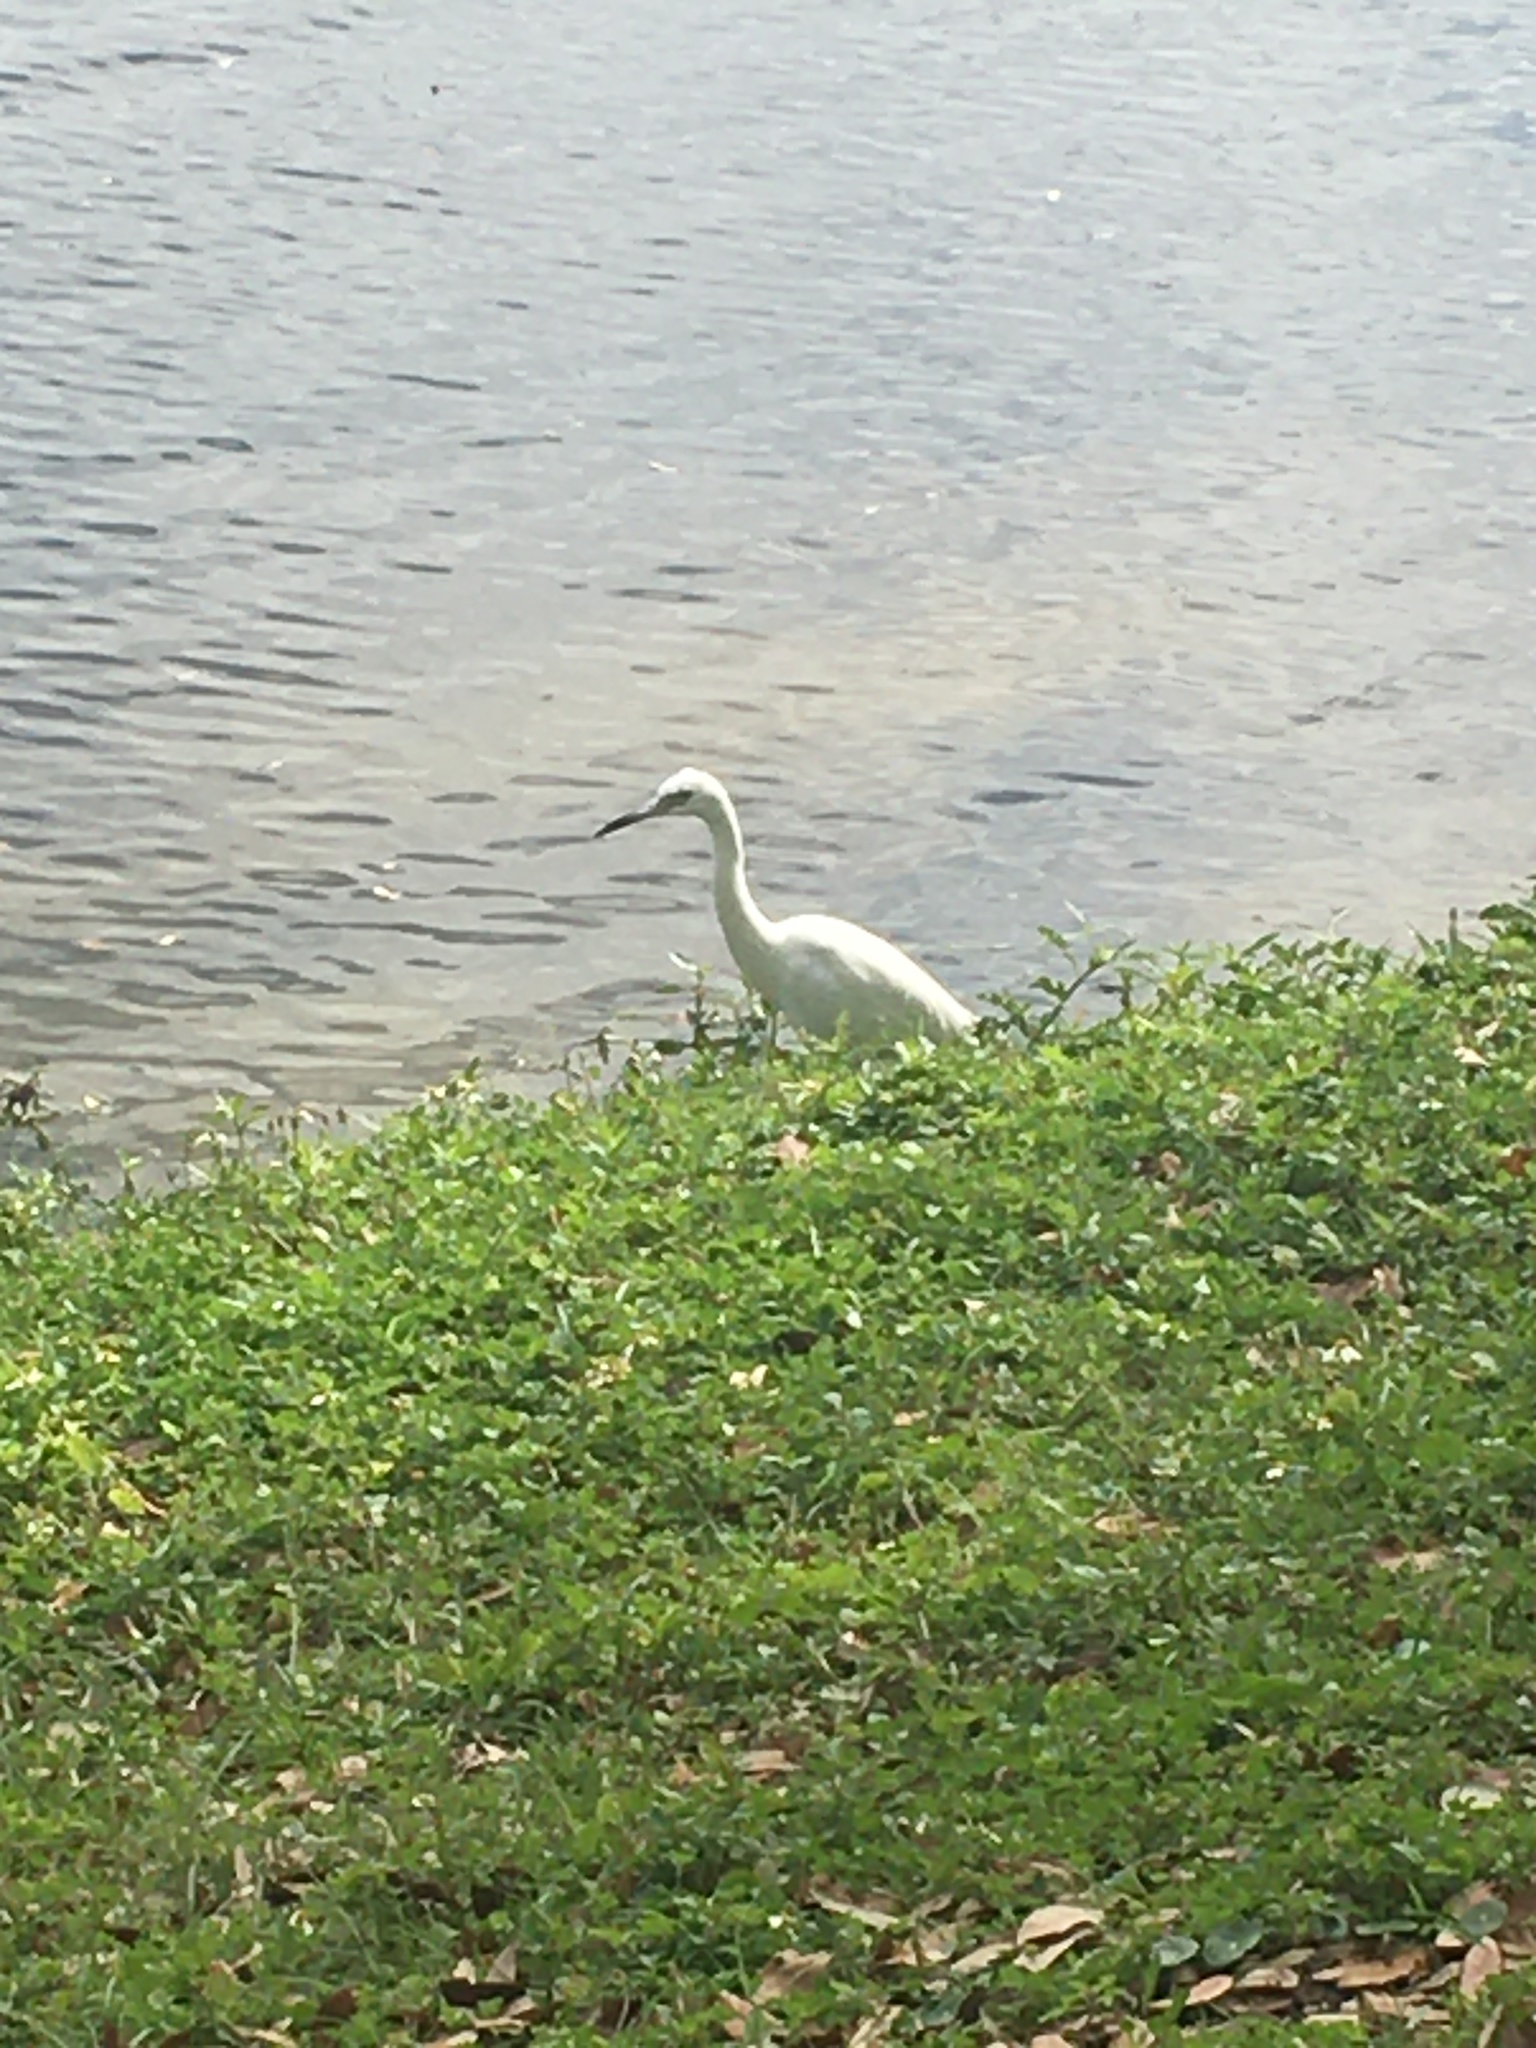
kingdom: Animalia
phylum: Chordata
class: Aves
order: Pelecaniformes
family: Ardeidae
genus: Egretta
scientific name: Egretta caerulea
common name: Little blue heron
